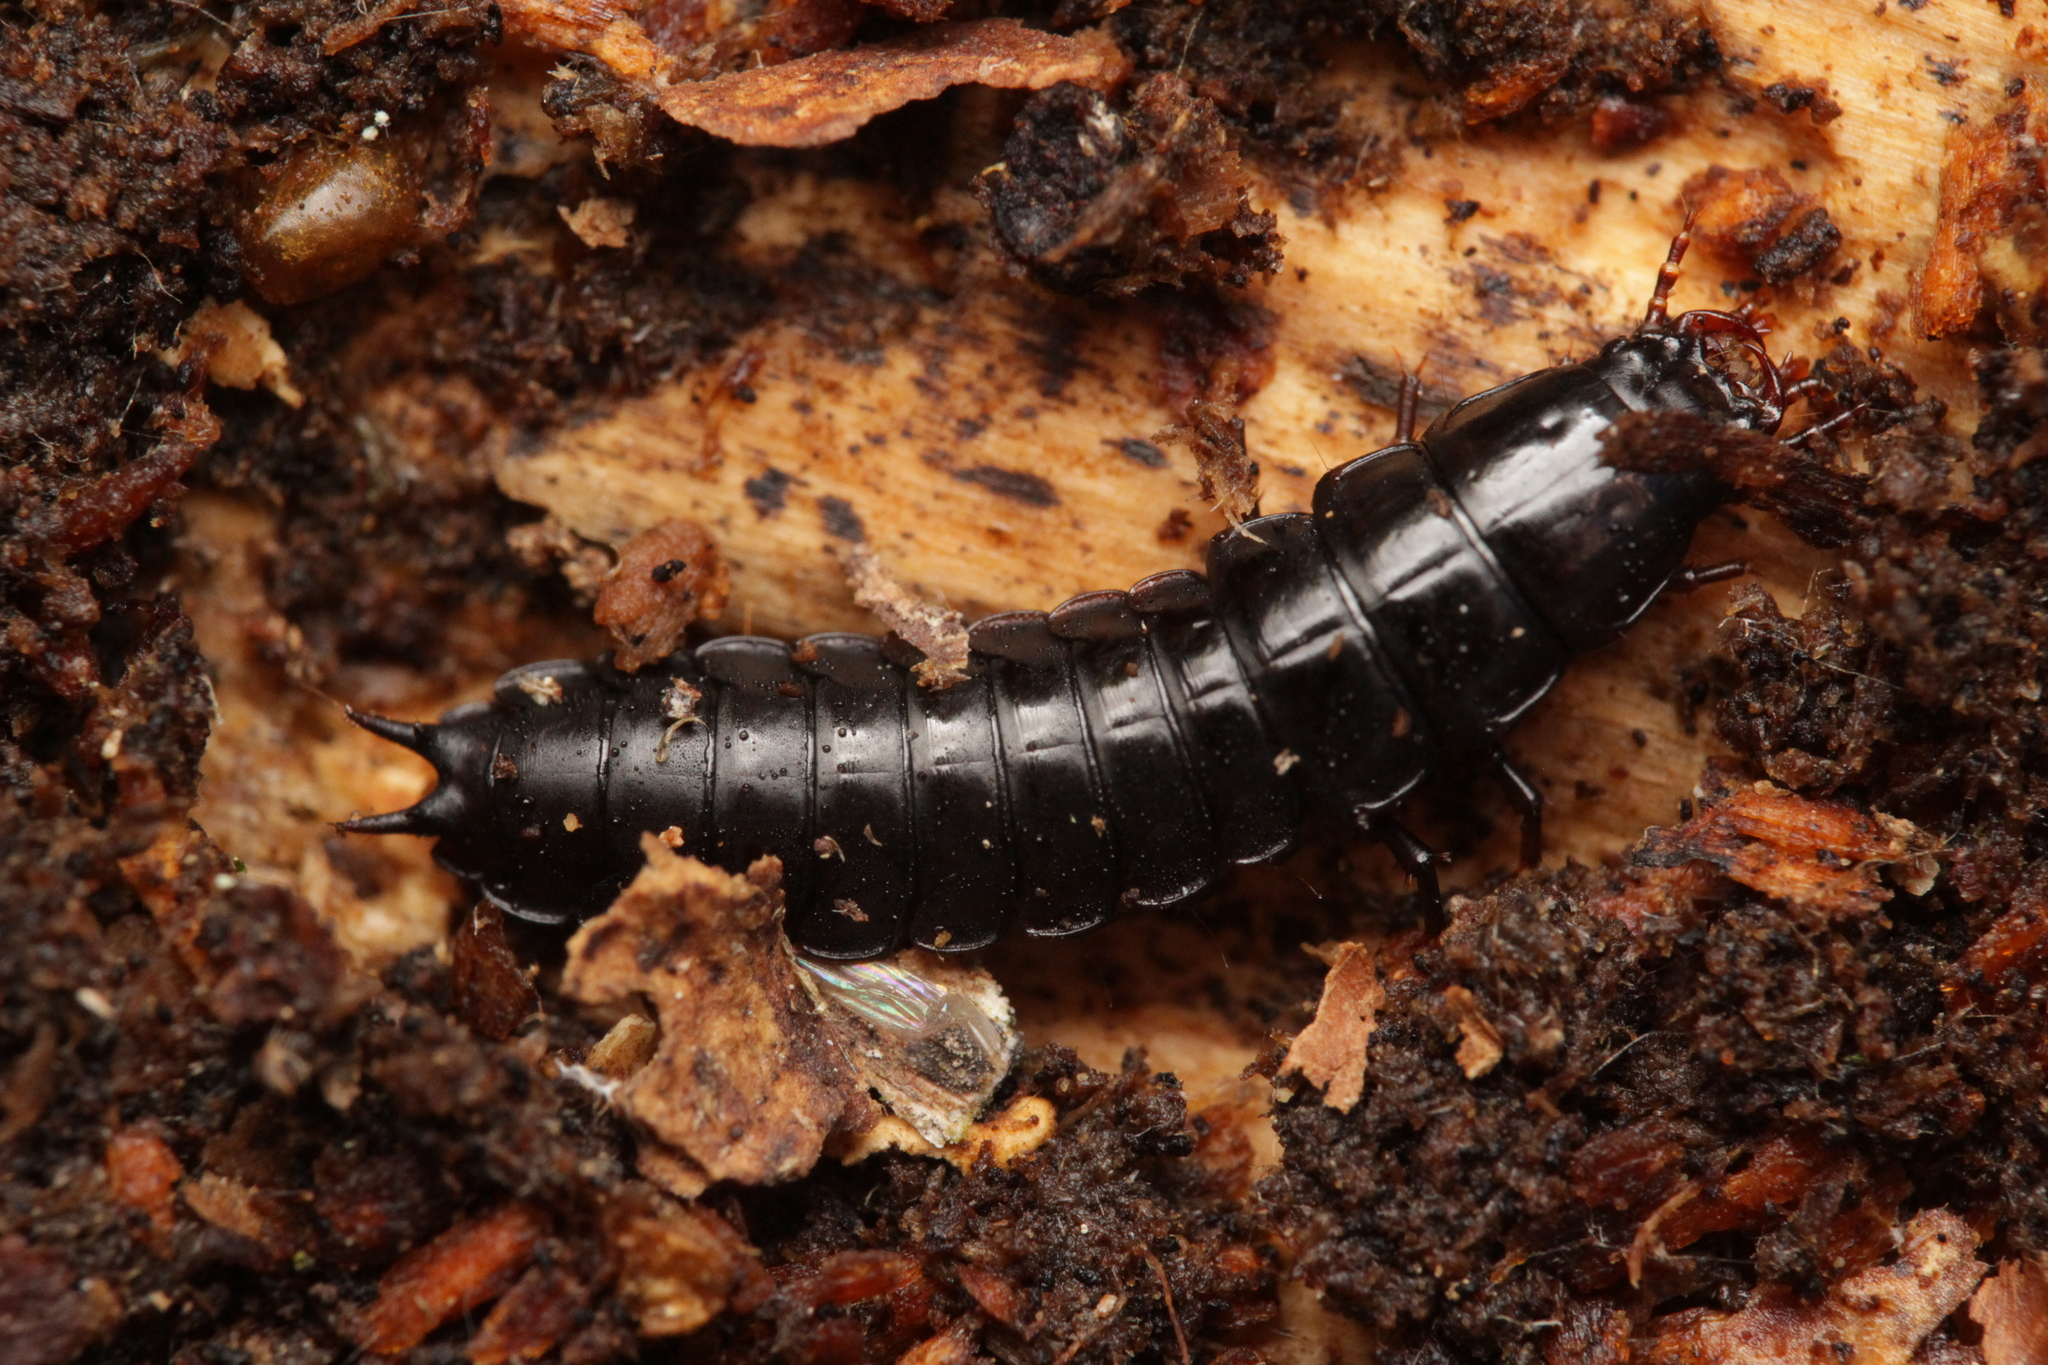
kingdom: Animalia
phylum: Arthropoda
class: Insecta
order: Coleoptera
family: Carabidae
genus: Carabus
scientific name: Carabus
